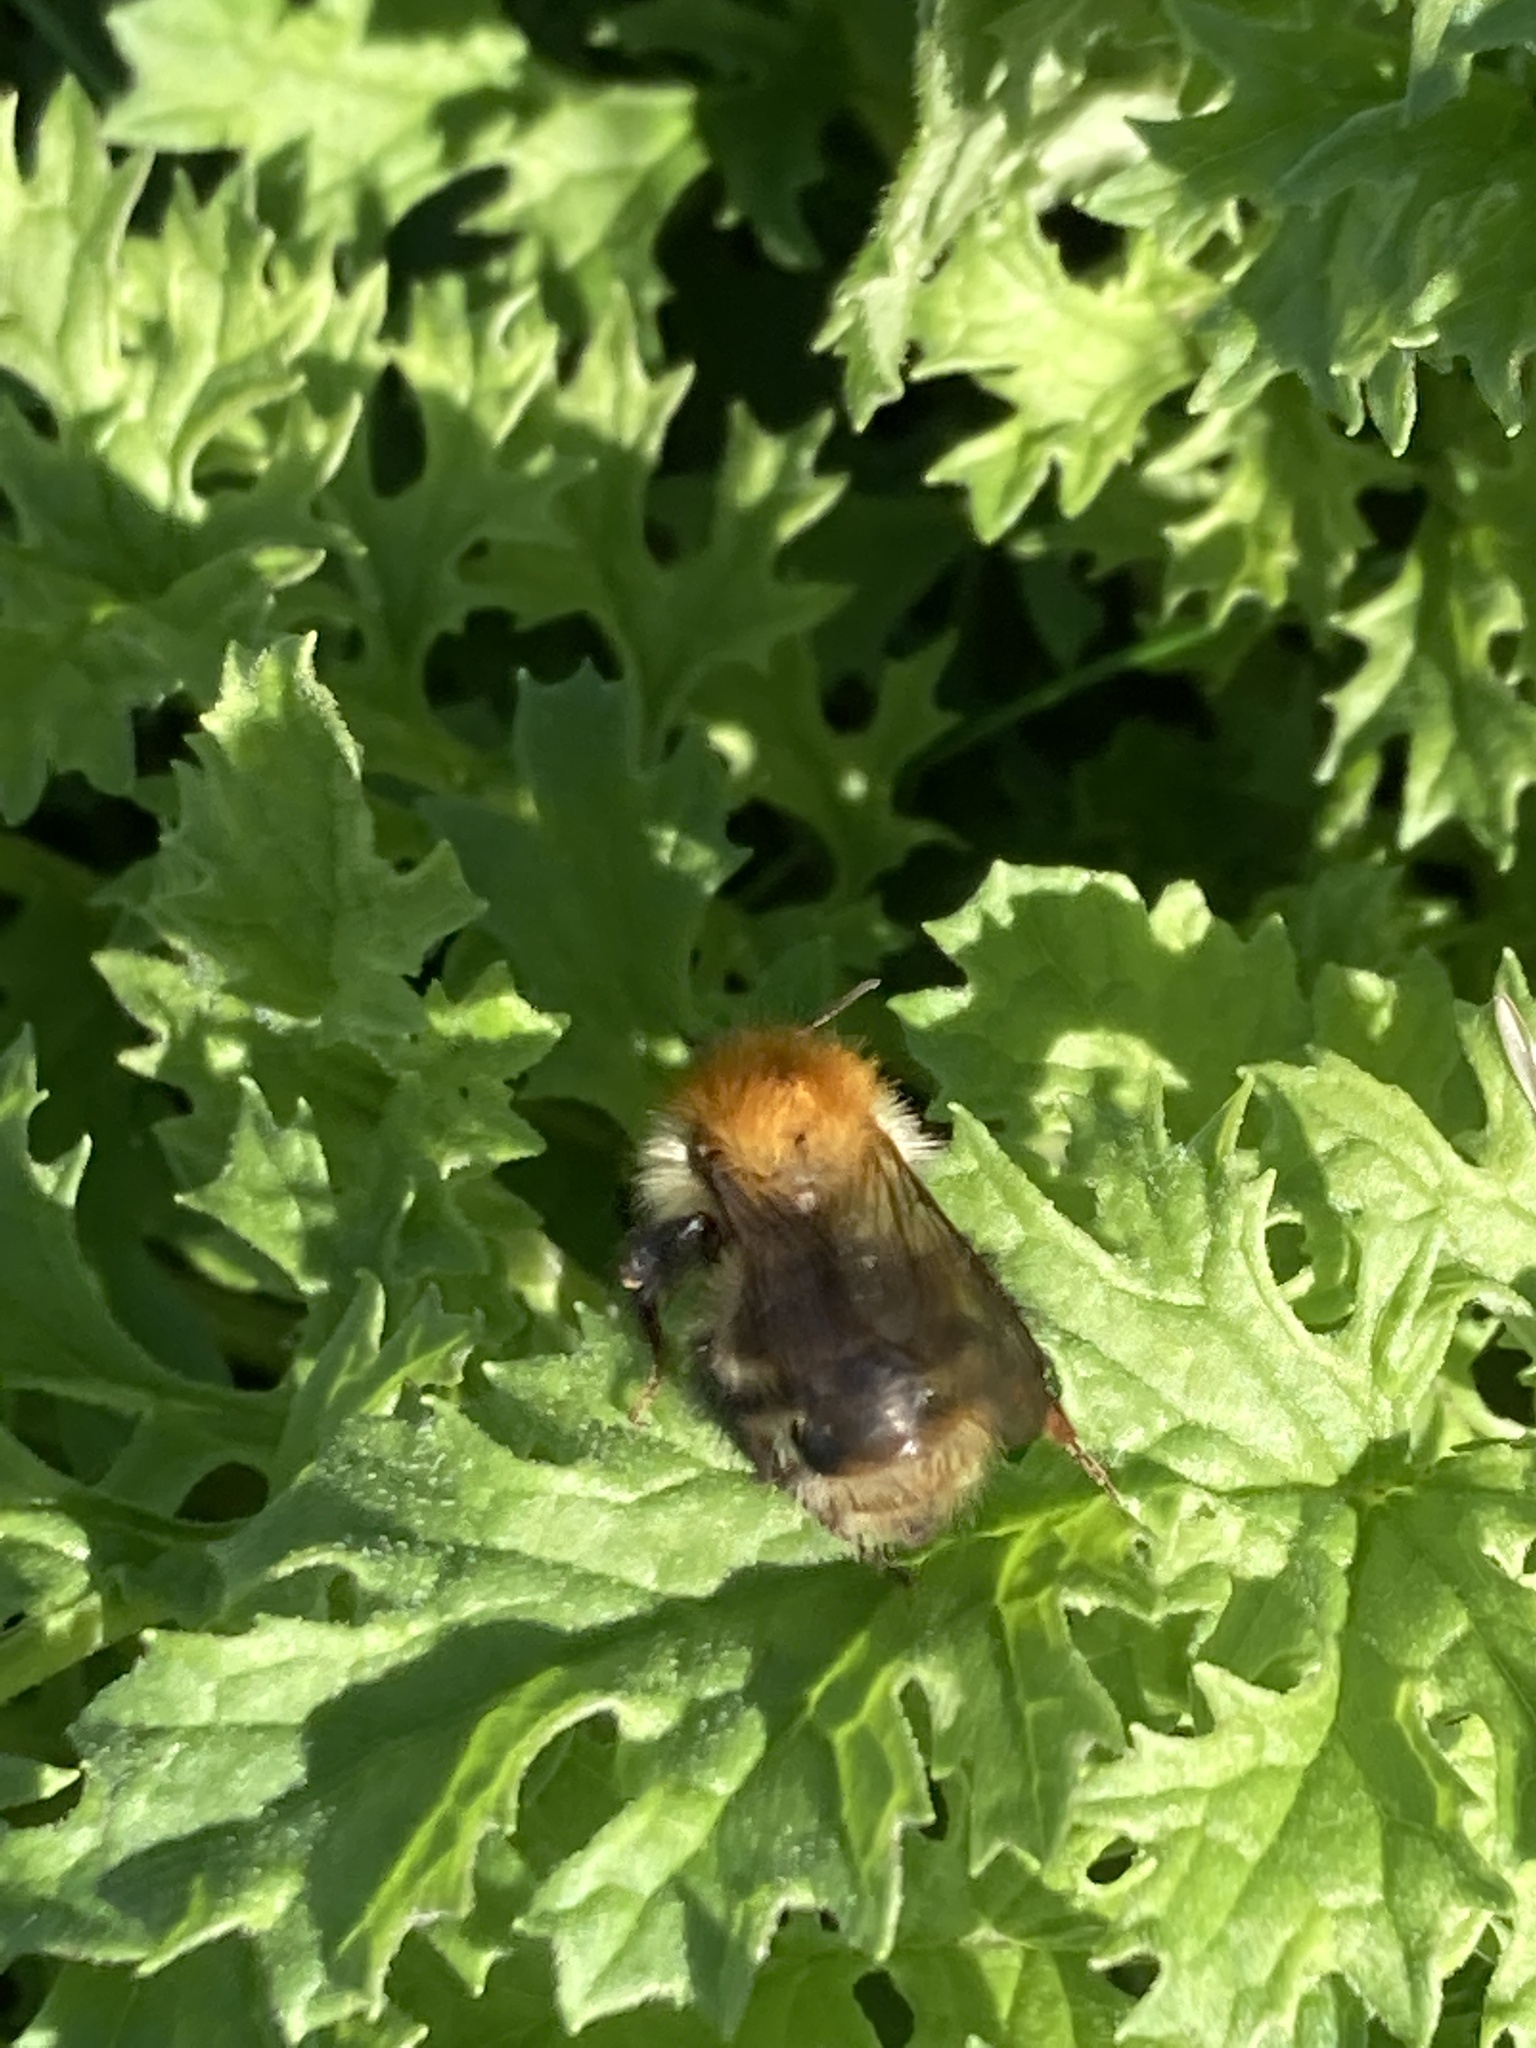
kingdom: Animalia
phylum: Arthropoda
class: Insecta
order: Hymenoptera
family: Apidae
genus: Bombus
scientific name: Bombus pascuorum
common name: Common carder bee
